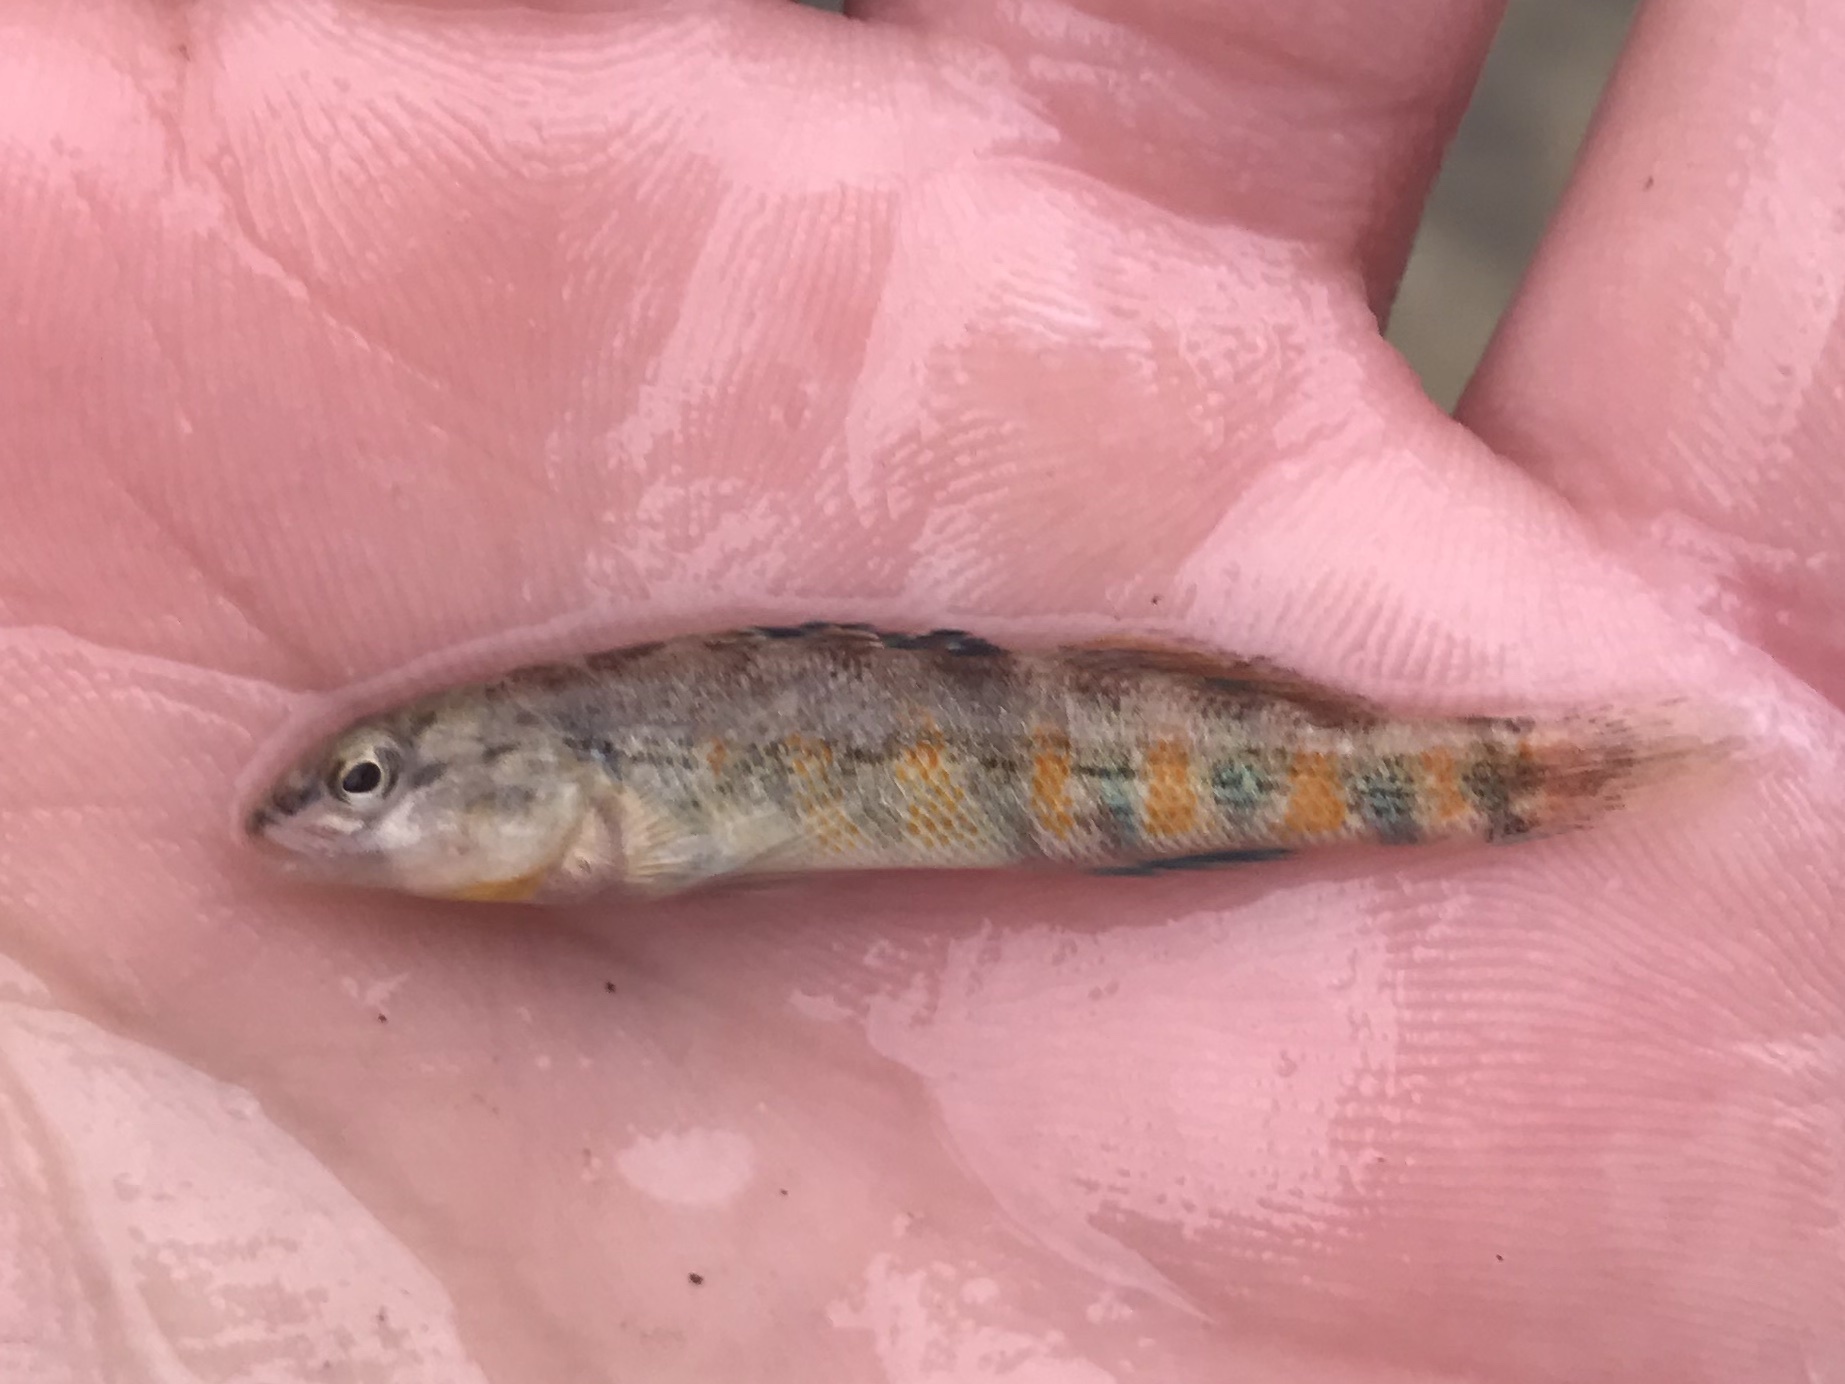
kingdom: Animalia
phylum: Chordata
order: Perciformes
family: Percidae
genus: Etheostoma
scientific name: Etheostoma spectabile
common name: Orangethroat darter
